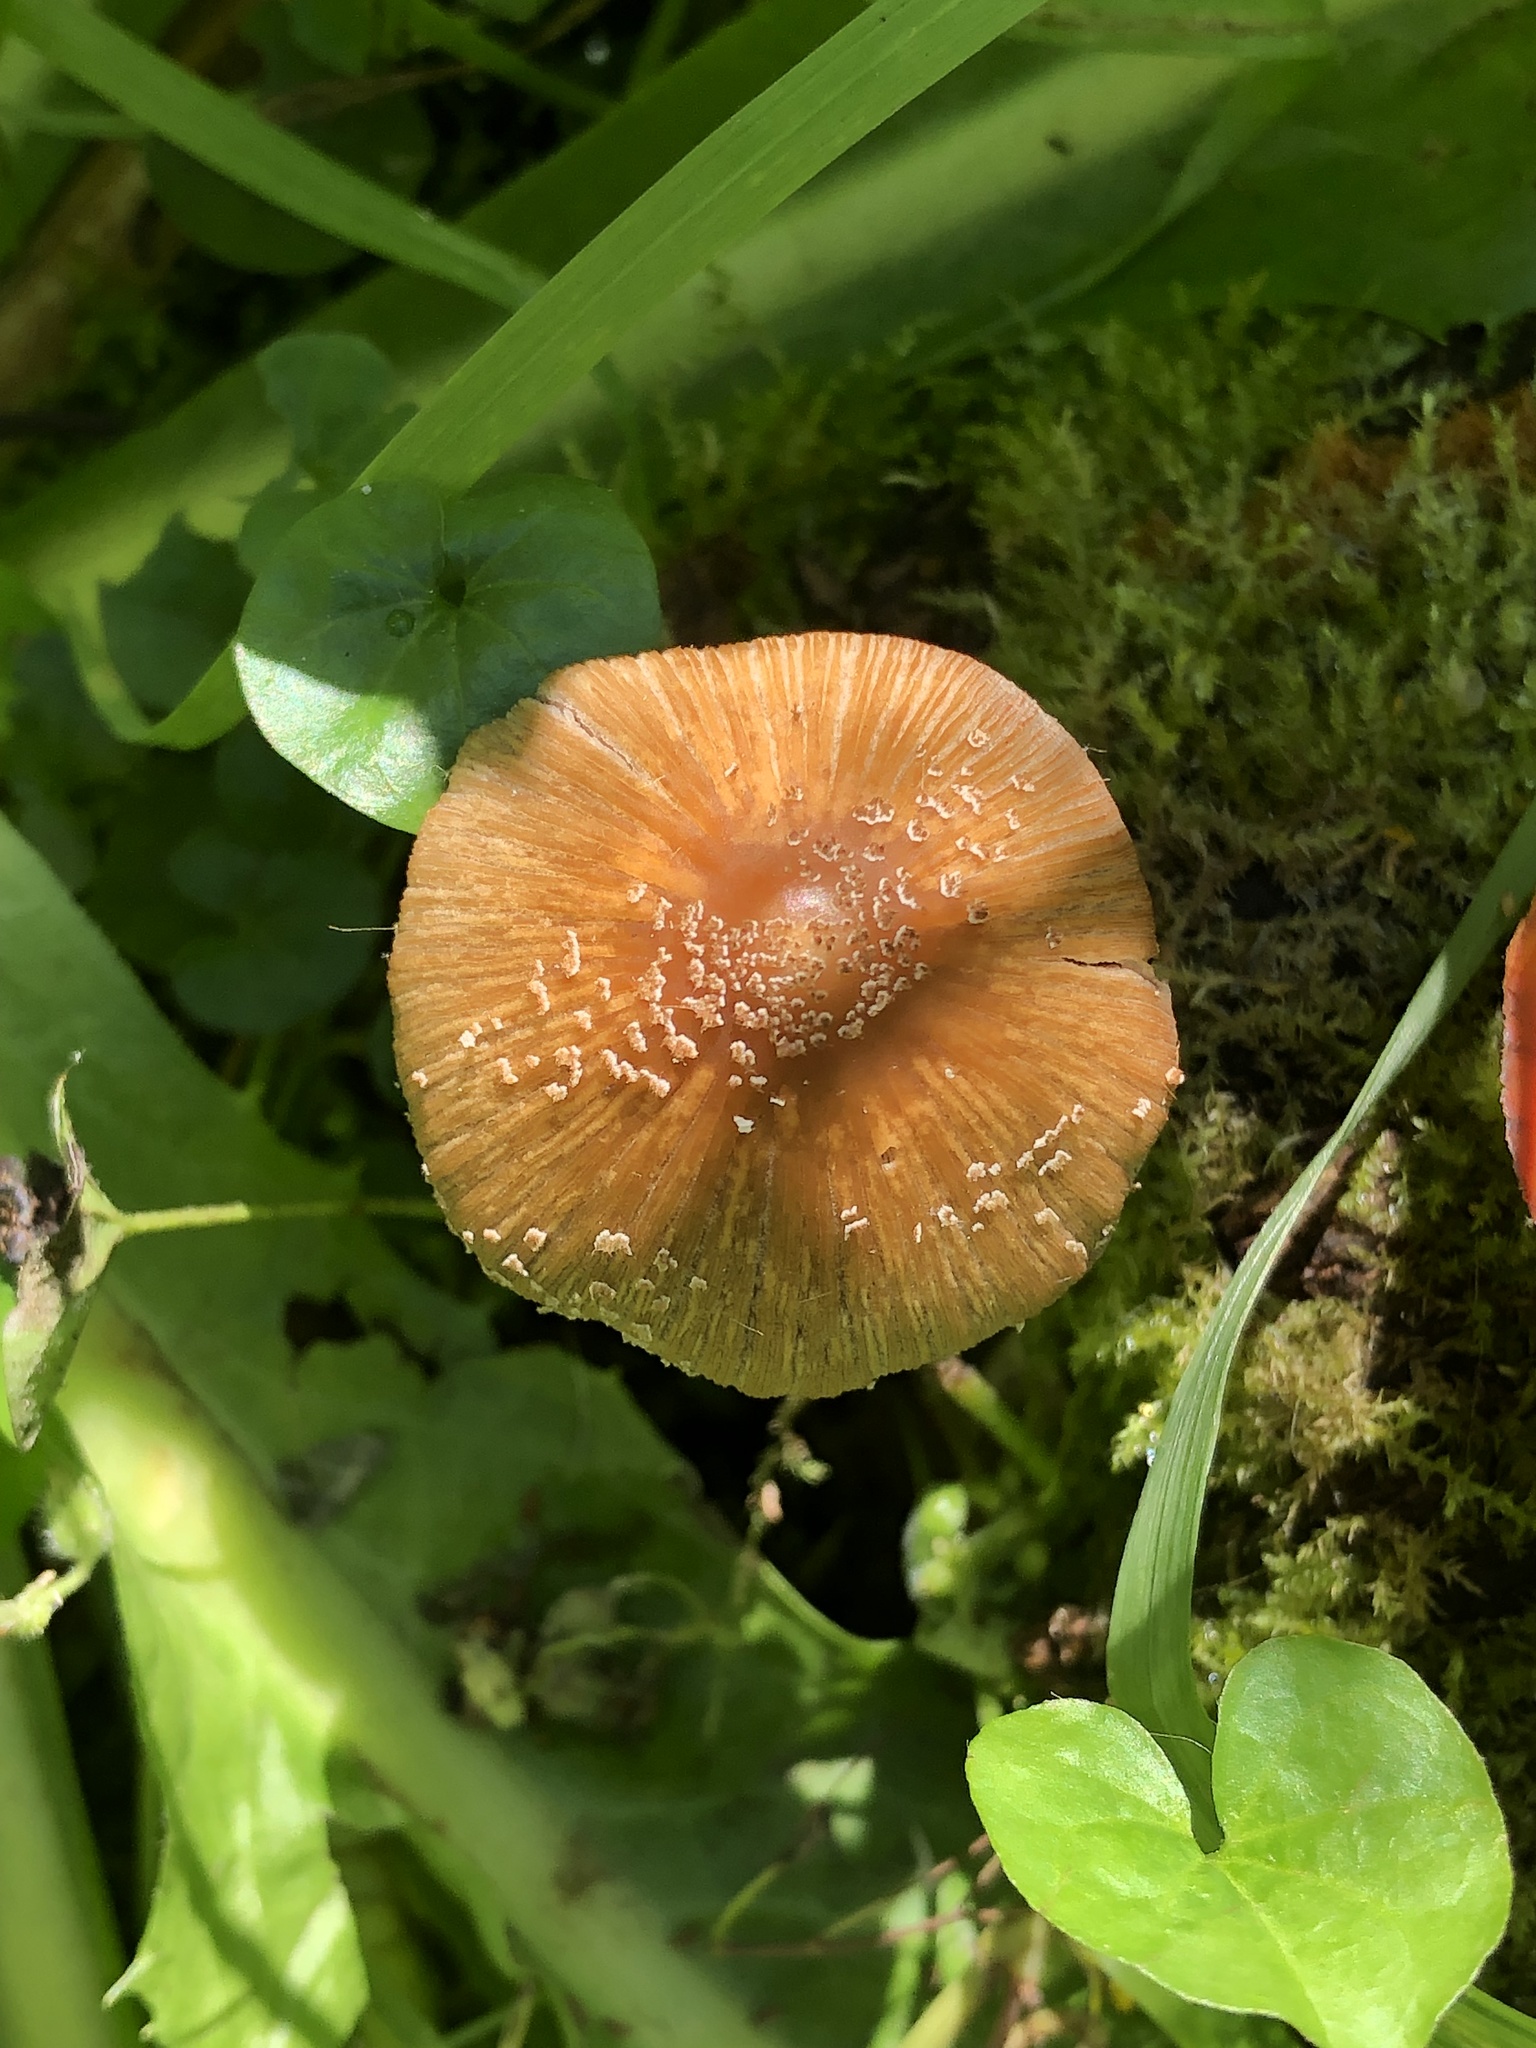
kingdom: Fungi
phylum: Basidiomycota
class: Agaricomycetes
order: Agaricales
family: Psathyrellaceae
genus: Coprinellus
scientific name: Coprinellus micaceus
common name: Glistening ink-cap
